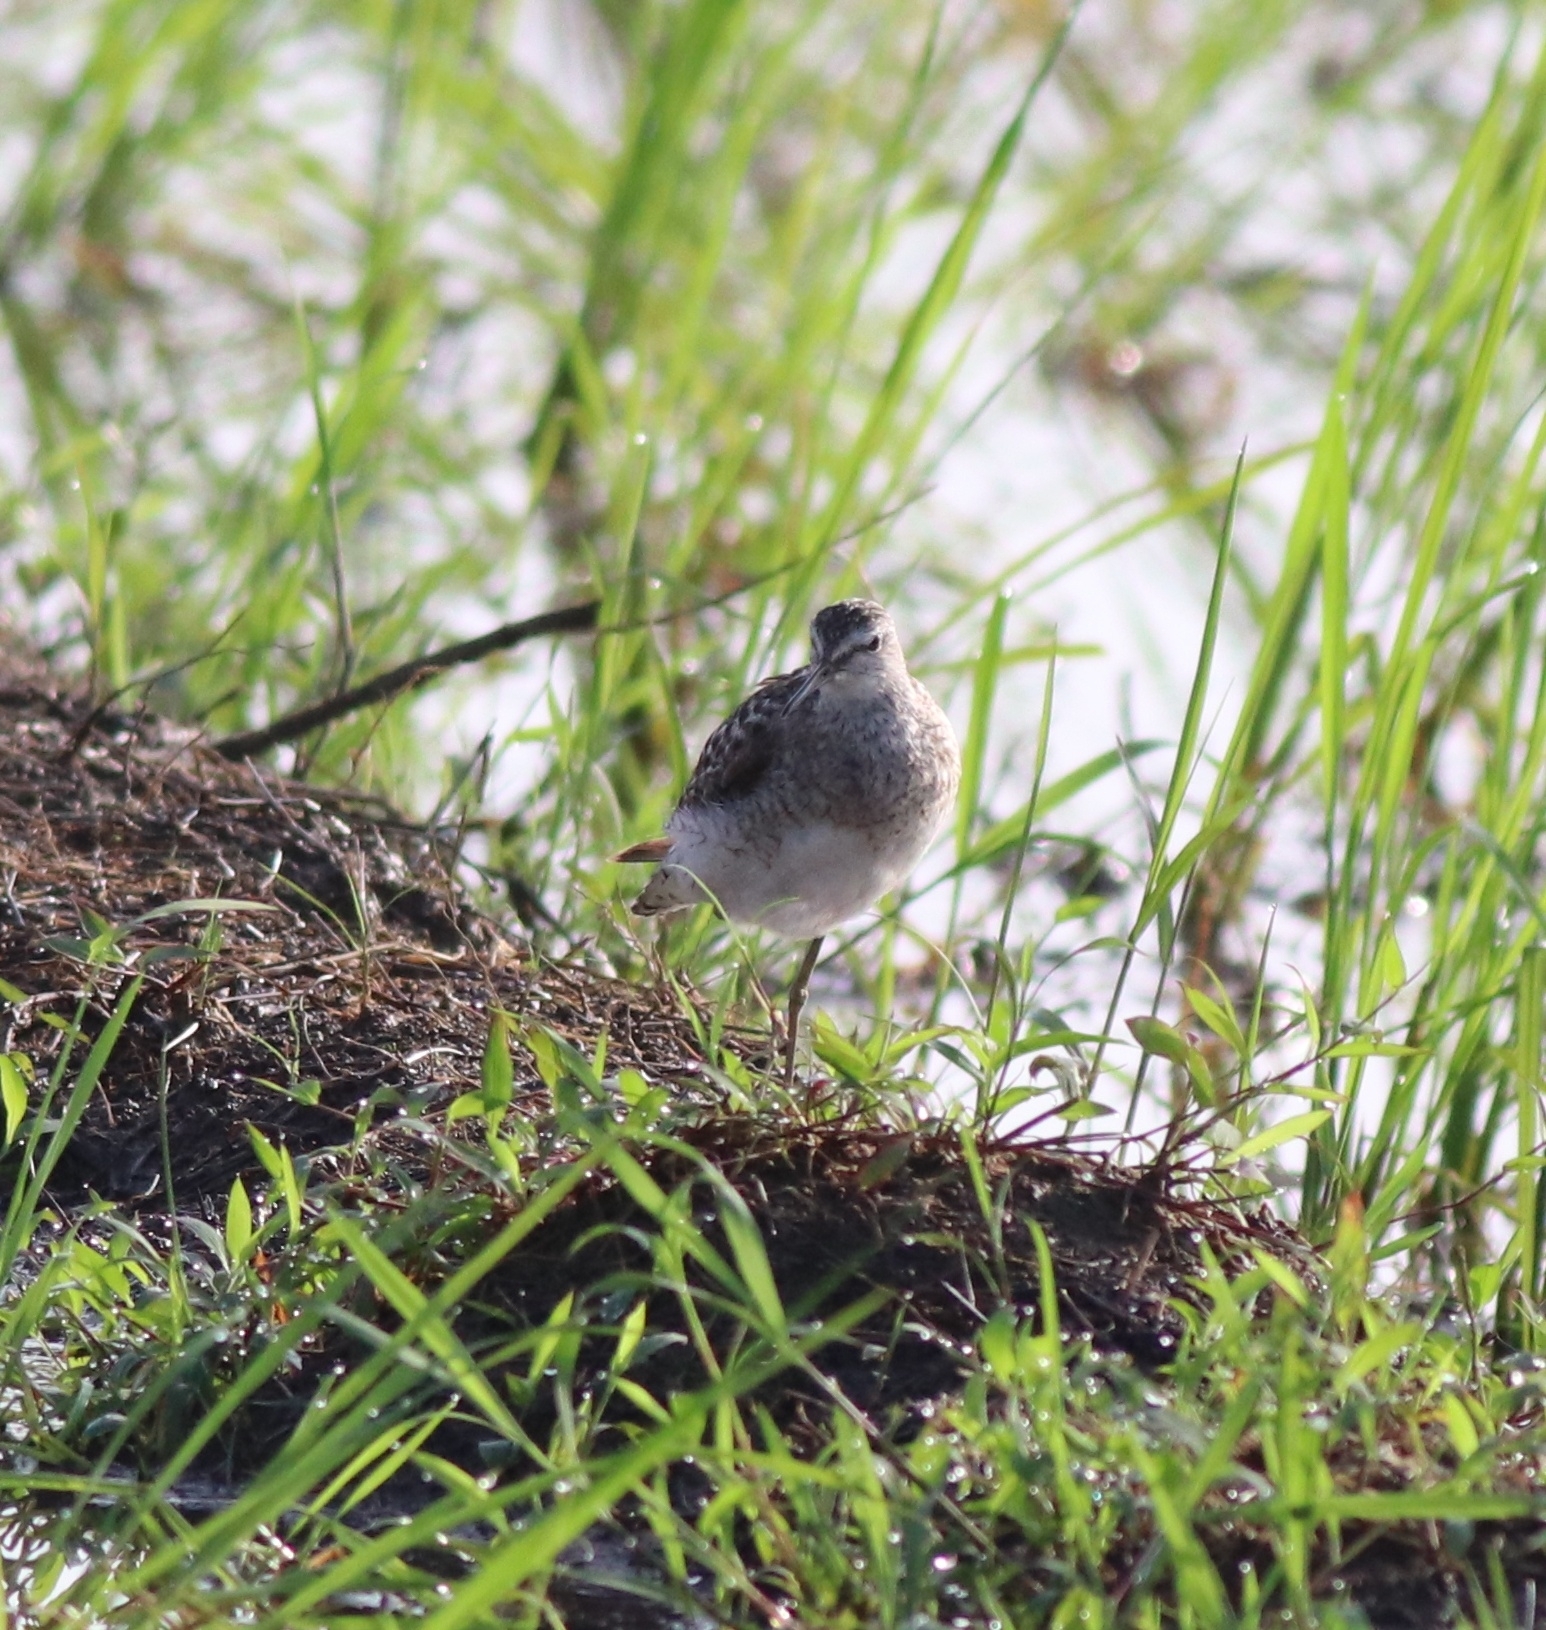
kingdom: Animalia
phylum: Chordata
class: Aves
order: Charadriiformes
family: Scolopacidae
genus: Tringa
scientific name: Tringa glareola
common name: Wood sandpiper
